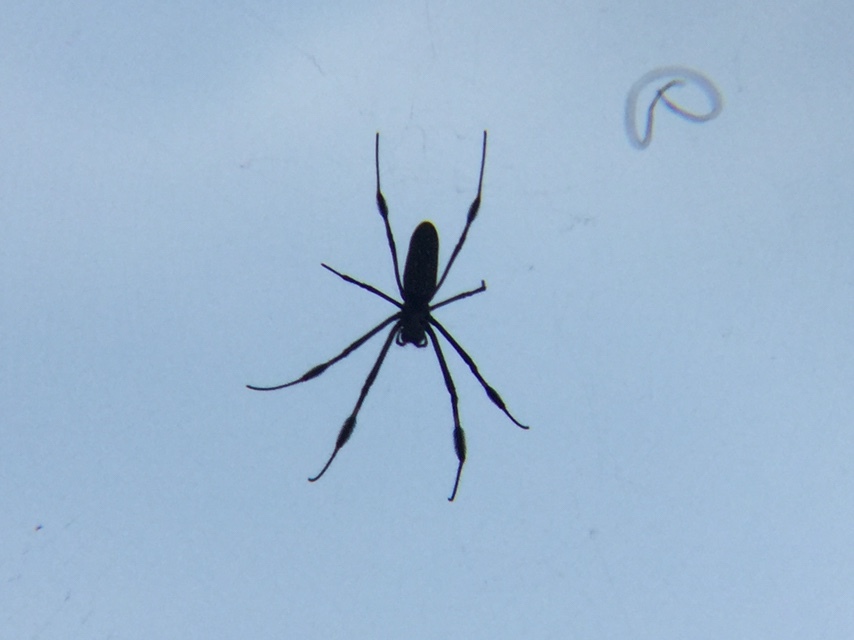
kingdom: Animalia
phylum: Arthropoda
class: Arachnida
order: Araneae
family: Araneidae
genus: Trichonephila
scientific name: Trichonephila clavipes
